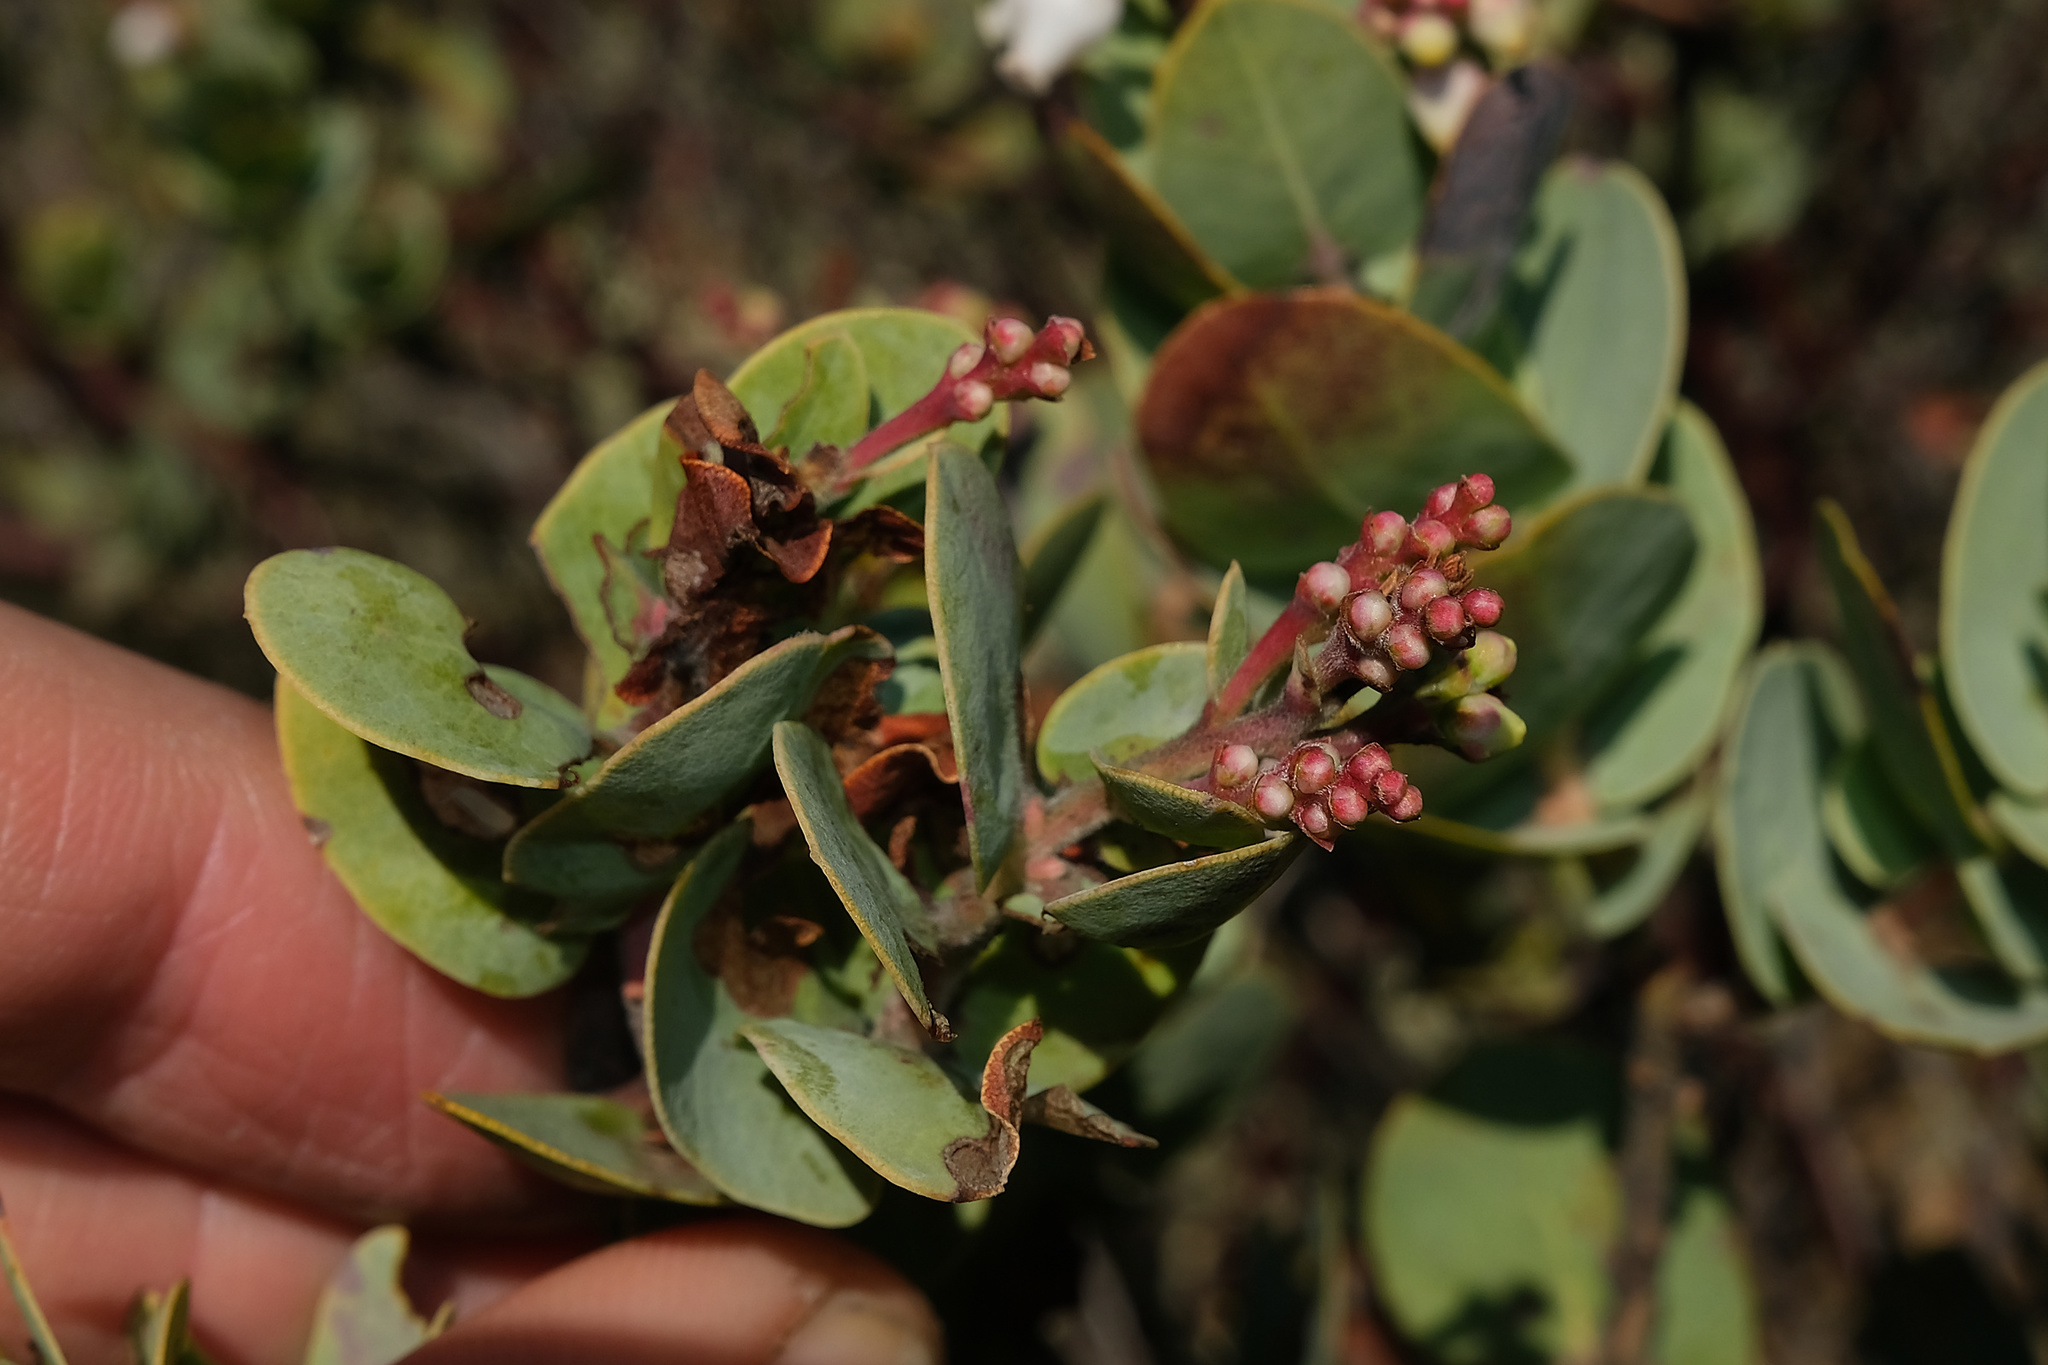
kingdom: Plantae
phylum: Tracheophyta
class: Magnoliopsida
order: Ericales
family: Ericaceae
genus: Arctostaphylos
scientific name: Arctostaphylos gabilanensis
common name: Gabilan manzanita
